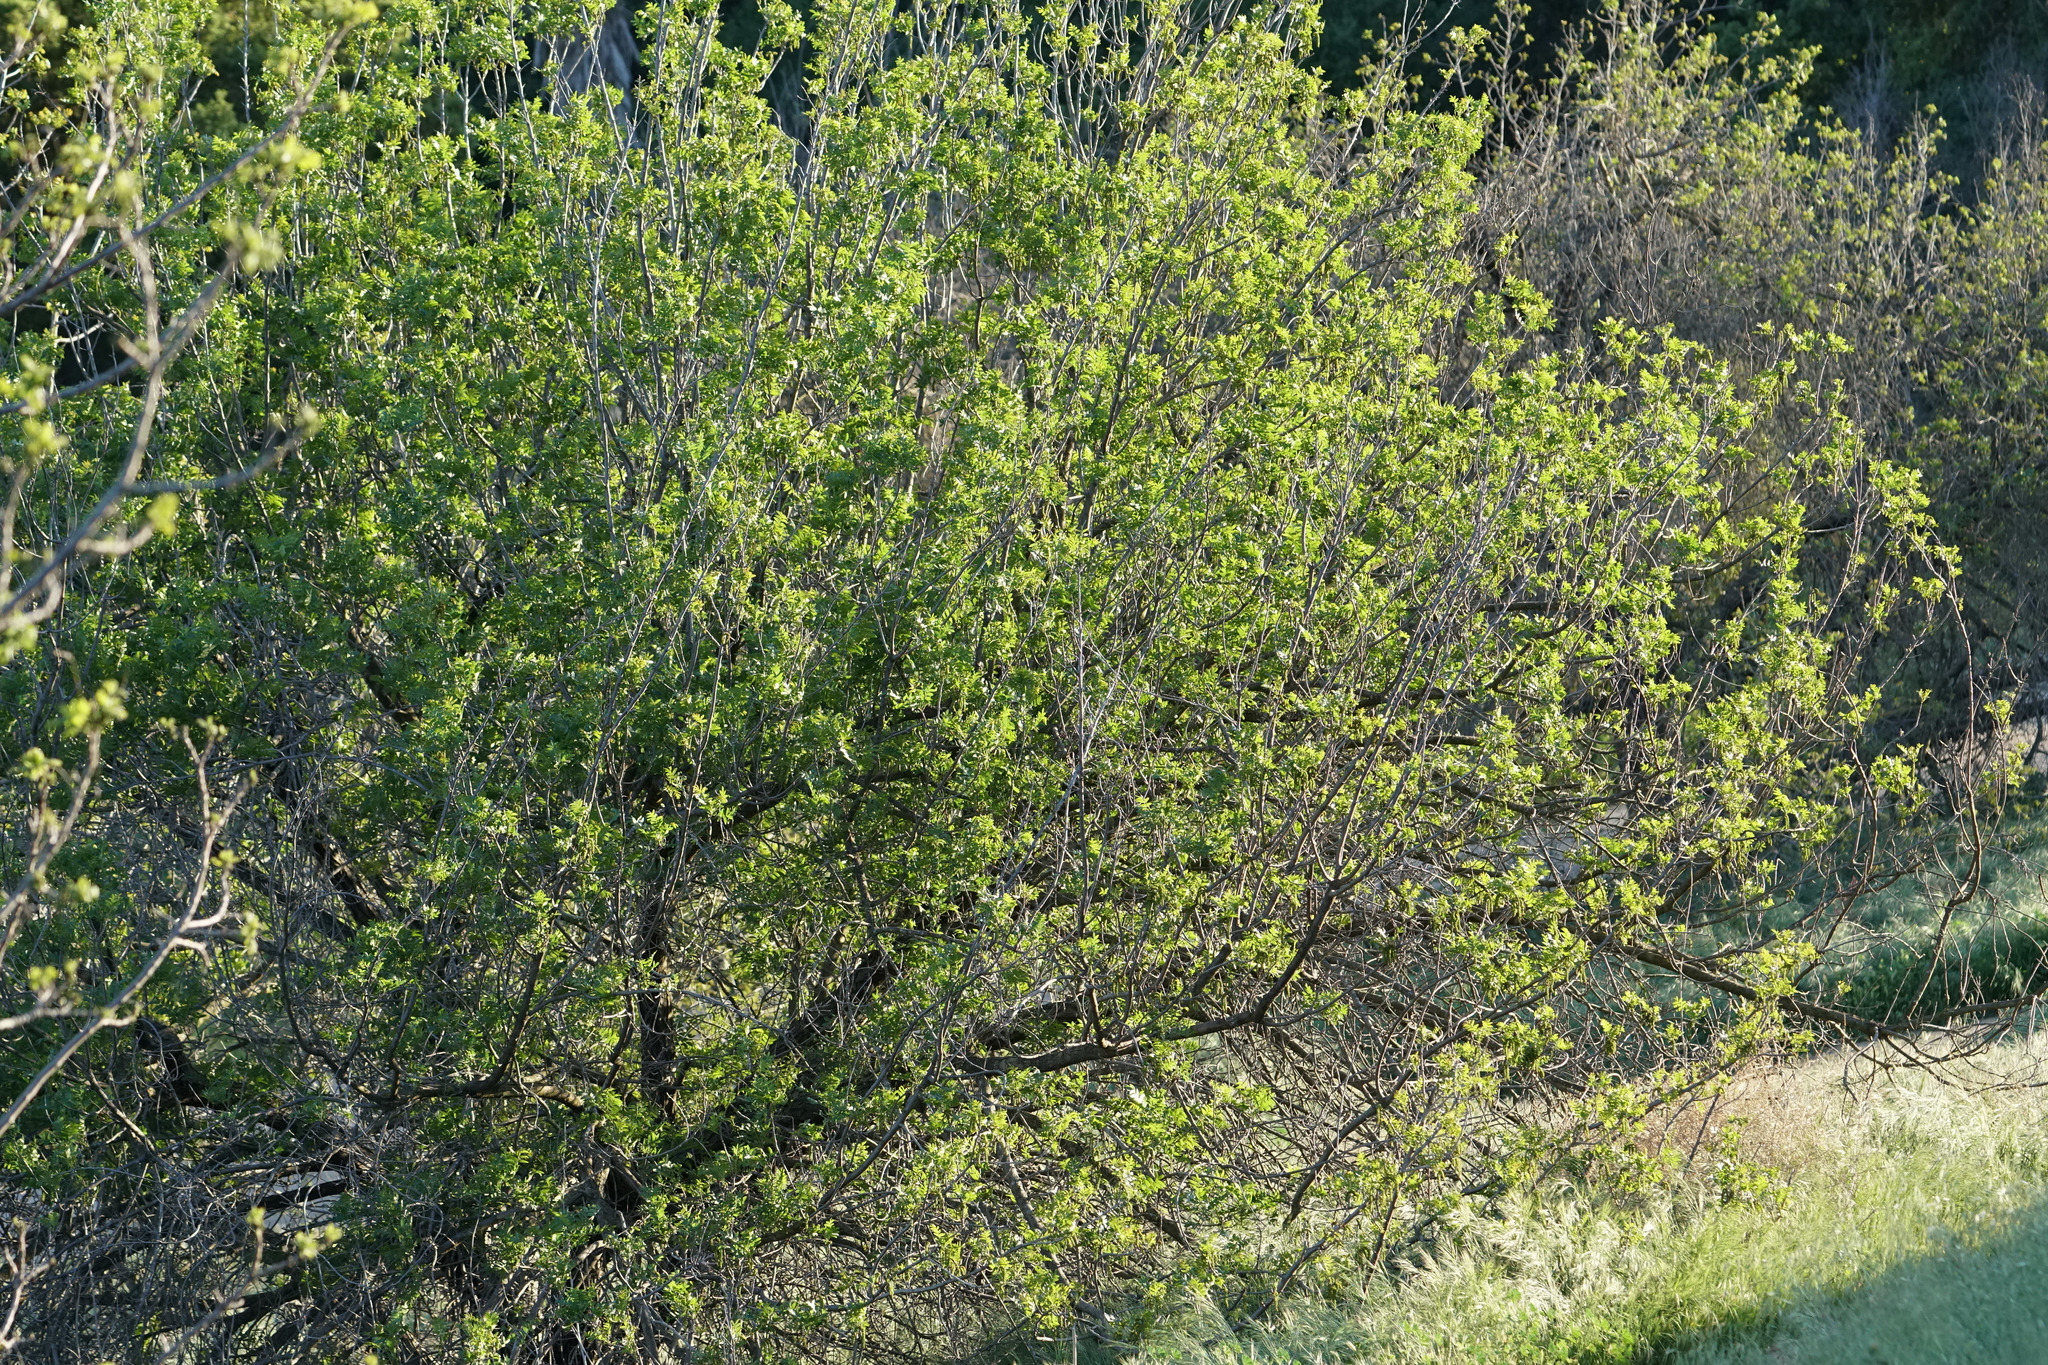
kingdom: Plantae
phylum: Tracheophyta
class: Magnoliopsida
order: Fagales
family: Juglandaceae
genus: Juglans
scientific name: Juglans californica
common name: Southern california black walnut
